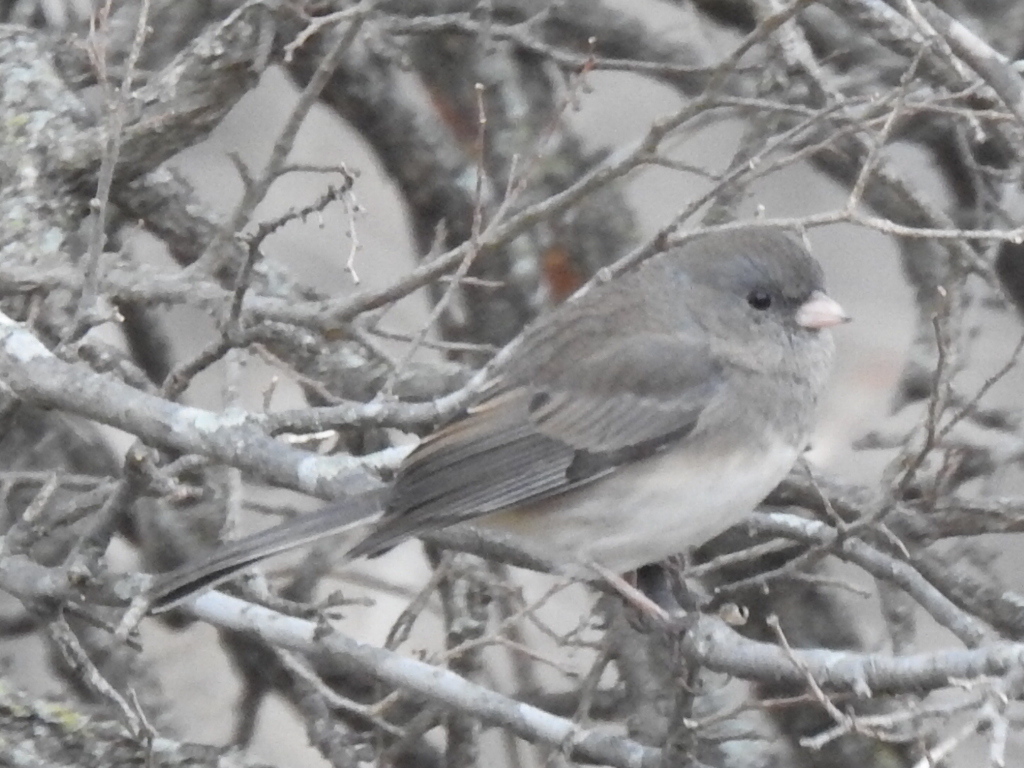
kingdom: Animalia
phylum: Chordata
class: Aves
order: Passeriformes
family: Passerellidae
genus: Junco
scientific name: Junco hyemalis
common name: Dark-eyed junco
